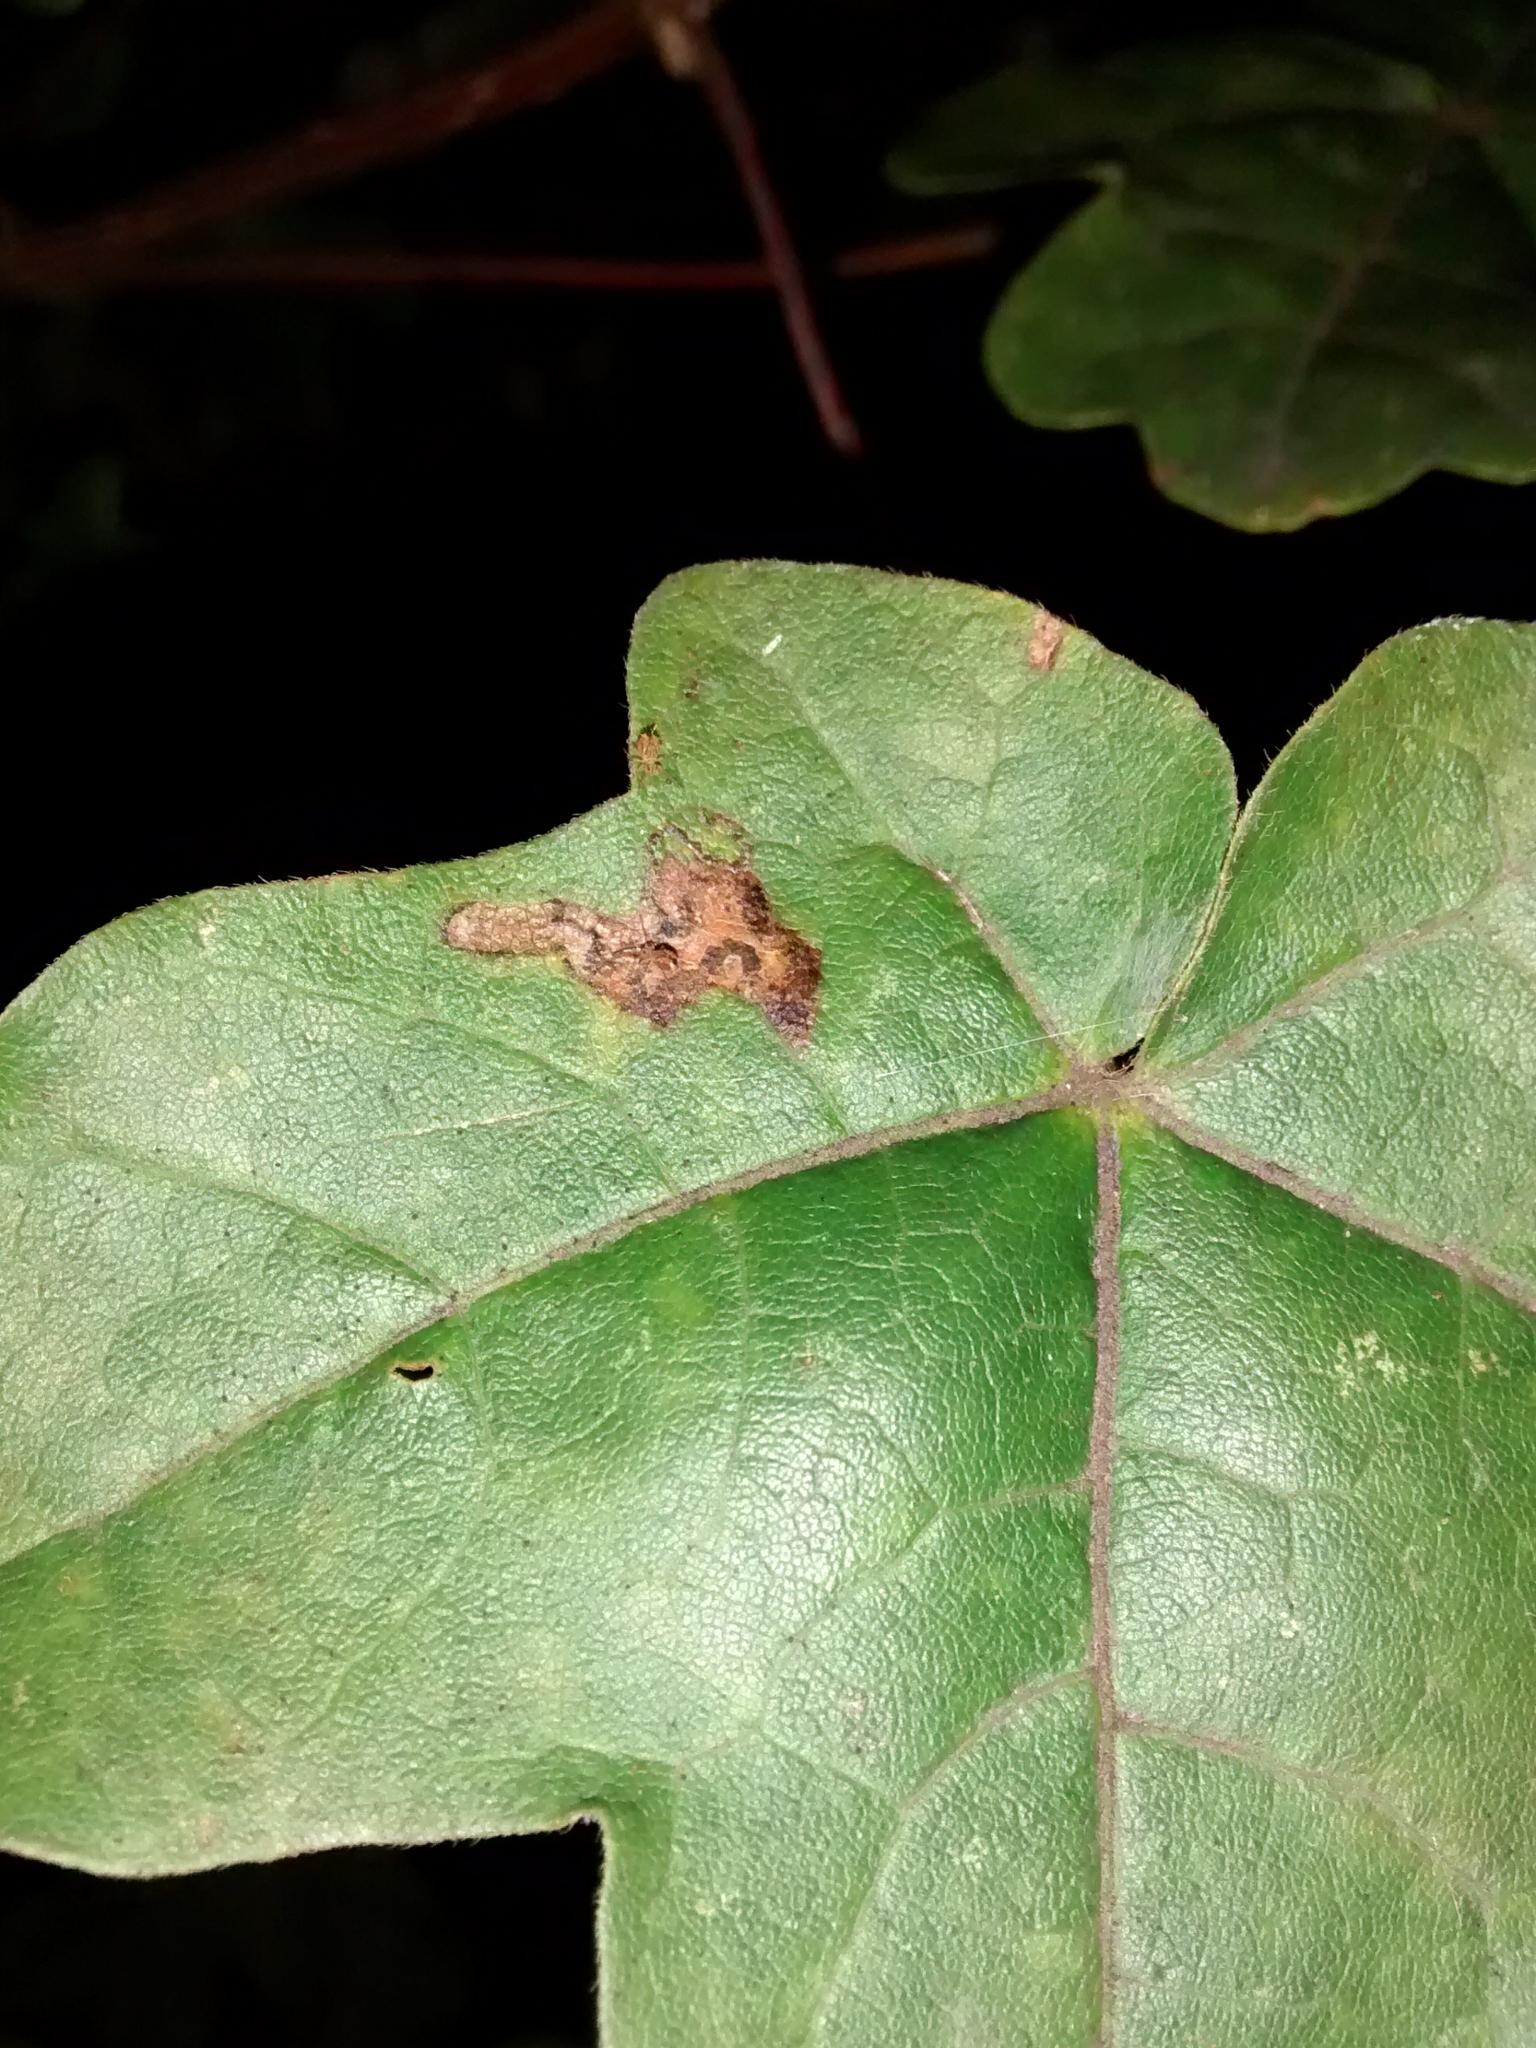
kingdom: Animalia
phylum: Arthropoda
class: Insecta
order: Lepidoptera
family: Nepticulidae
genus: Stigmella
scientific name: Stigmella aceris
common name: Scarce maple pigmy
